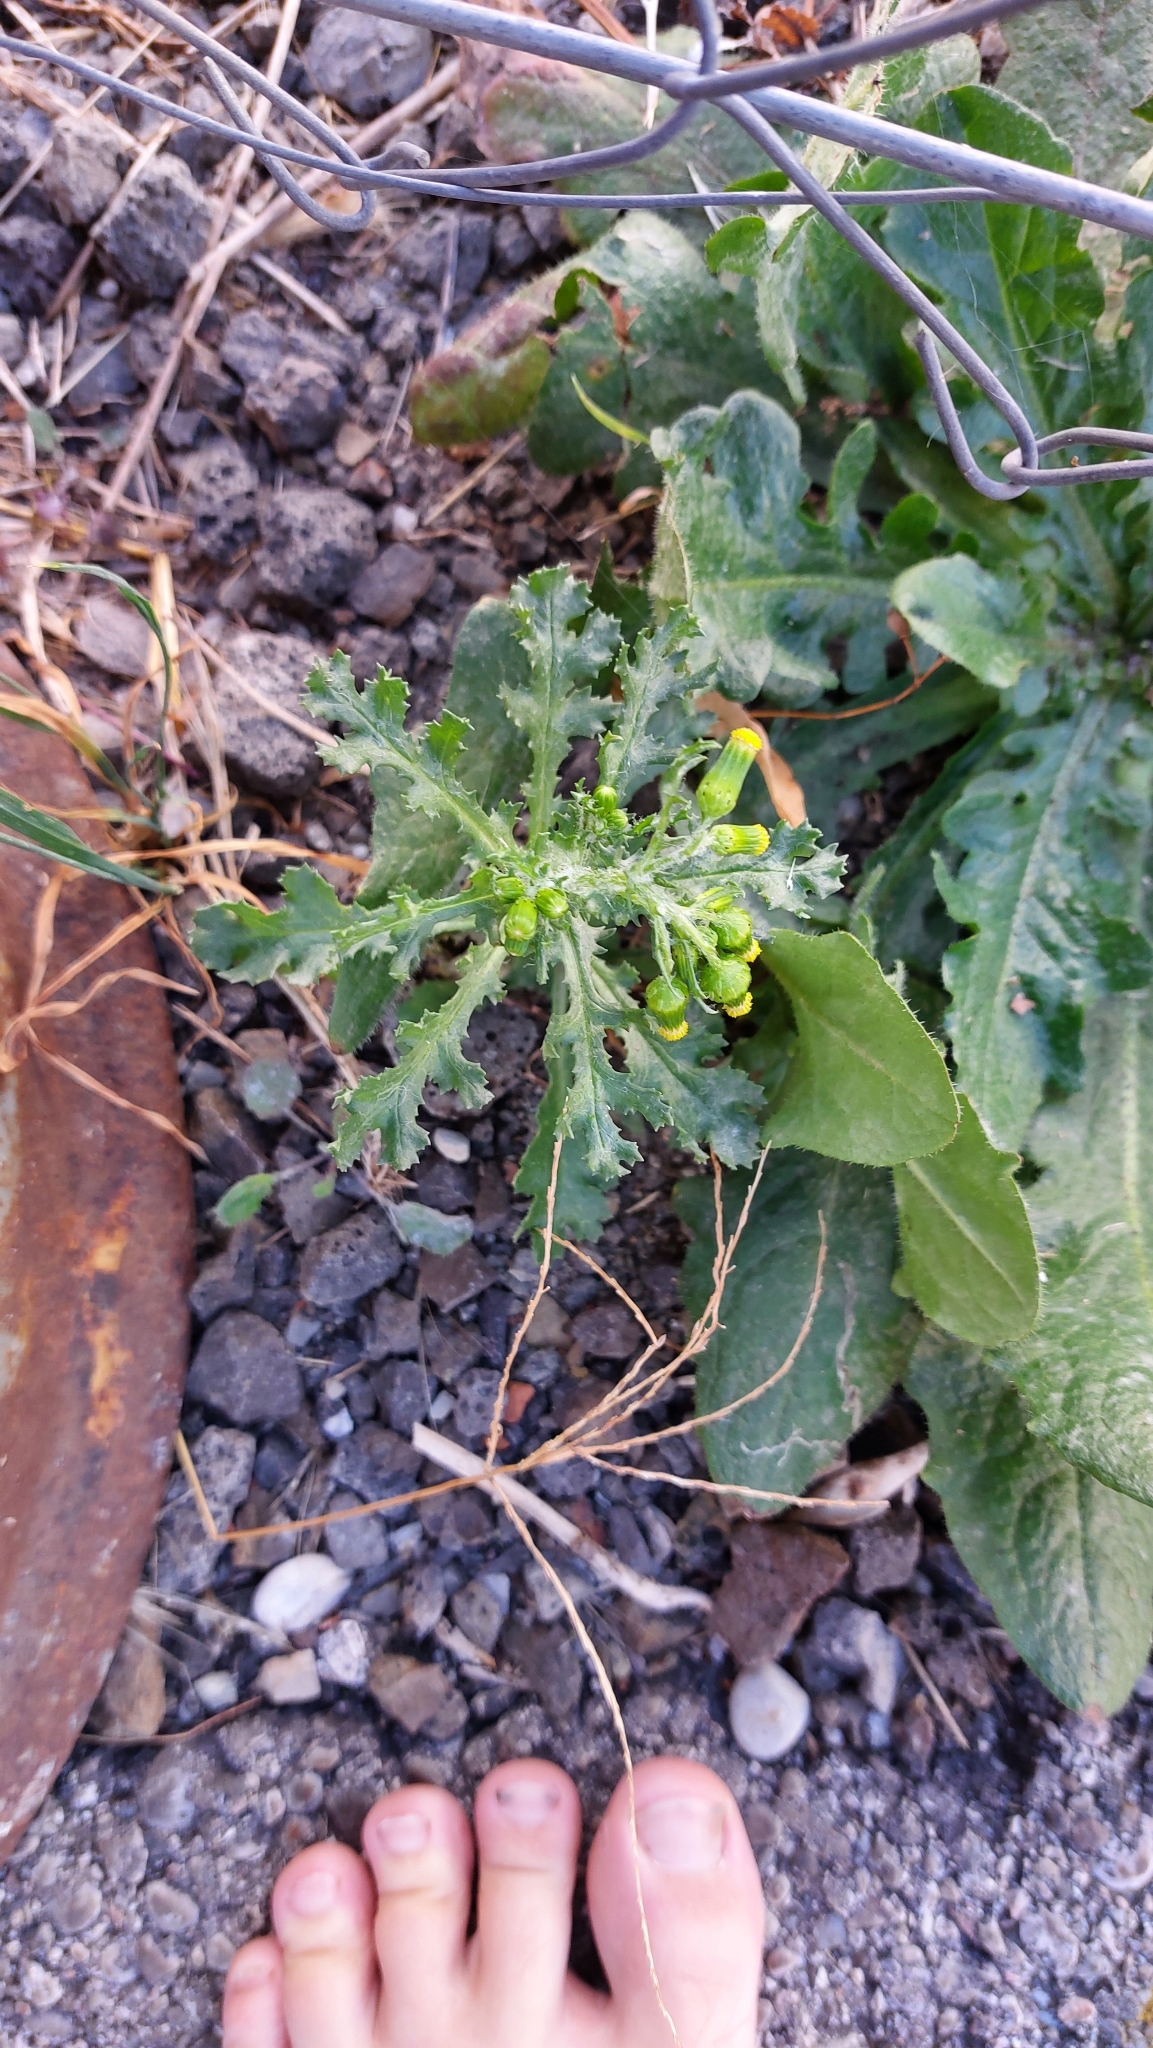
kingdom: Plantae
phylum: Tracheophyta
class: Magnoliopsida
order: Asterales
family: Asteraceae
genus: Senecio
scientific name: Senecio vulgaris
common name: Old-man-in-the-spring
